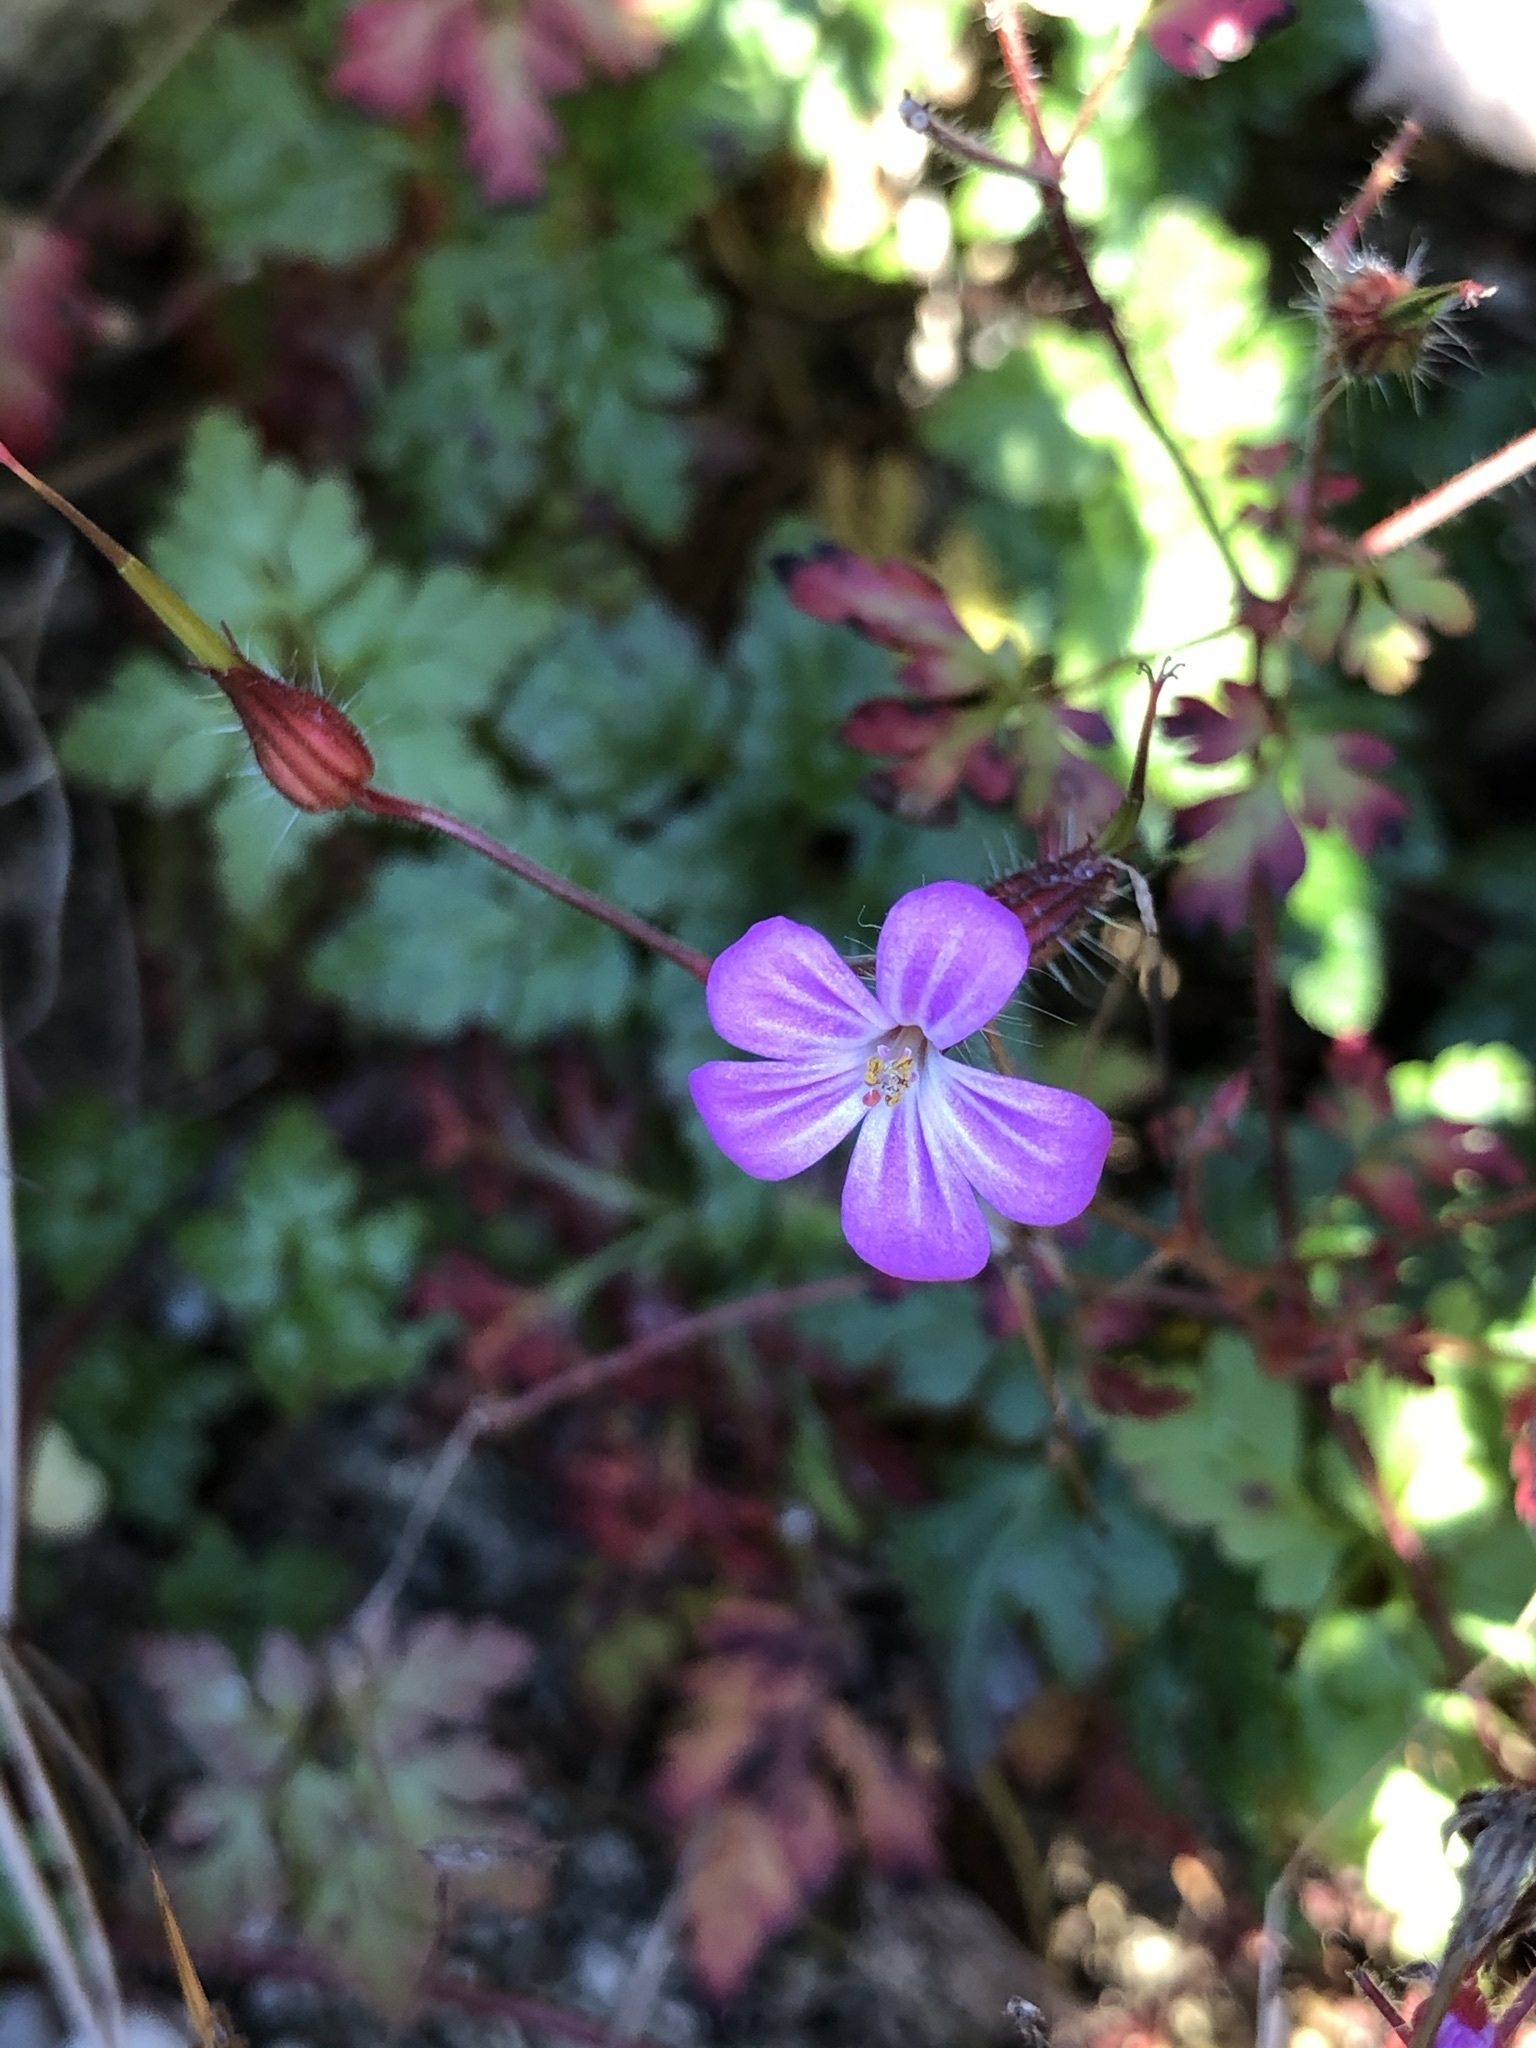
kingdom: Plantae
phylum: Tracheophyta
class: Magnoliopsida
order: Geraniales
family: Geraniaceae
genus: Geranium
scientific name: Geranium robertianum
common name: Herb-robert
